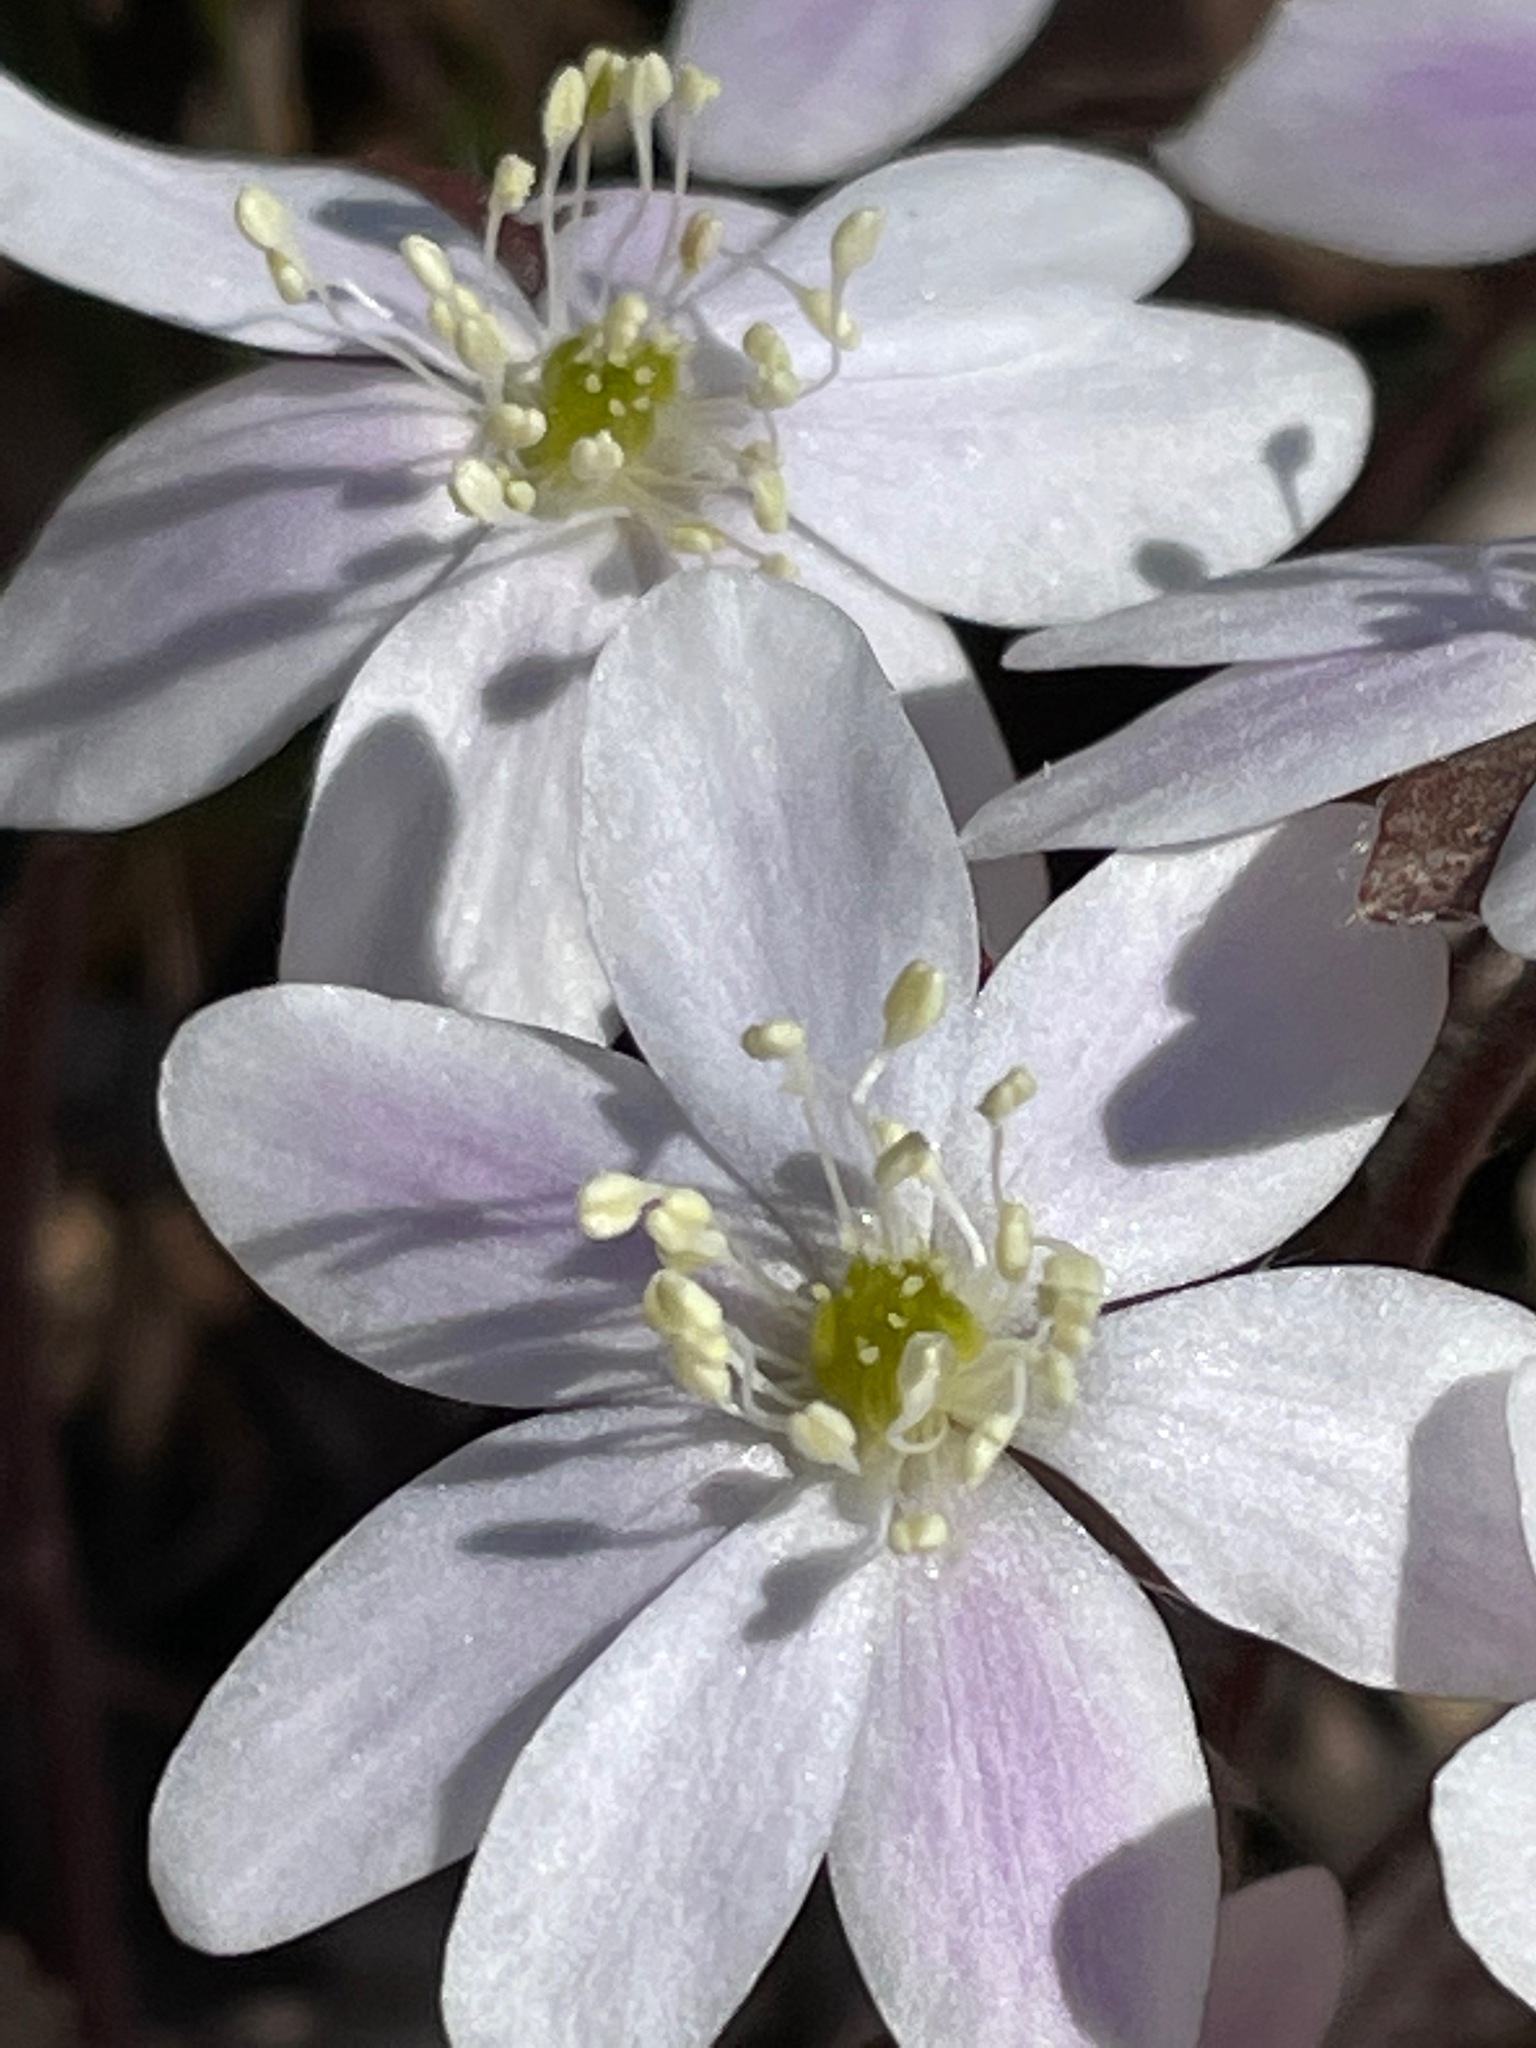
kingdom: Plantae
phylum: Tracheophyta
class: Magnoliopsida
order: Ranunculales
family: Ranunculaceae
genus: Hepatica
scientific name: Hepatica americana
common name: American hepatica
